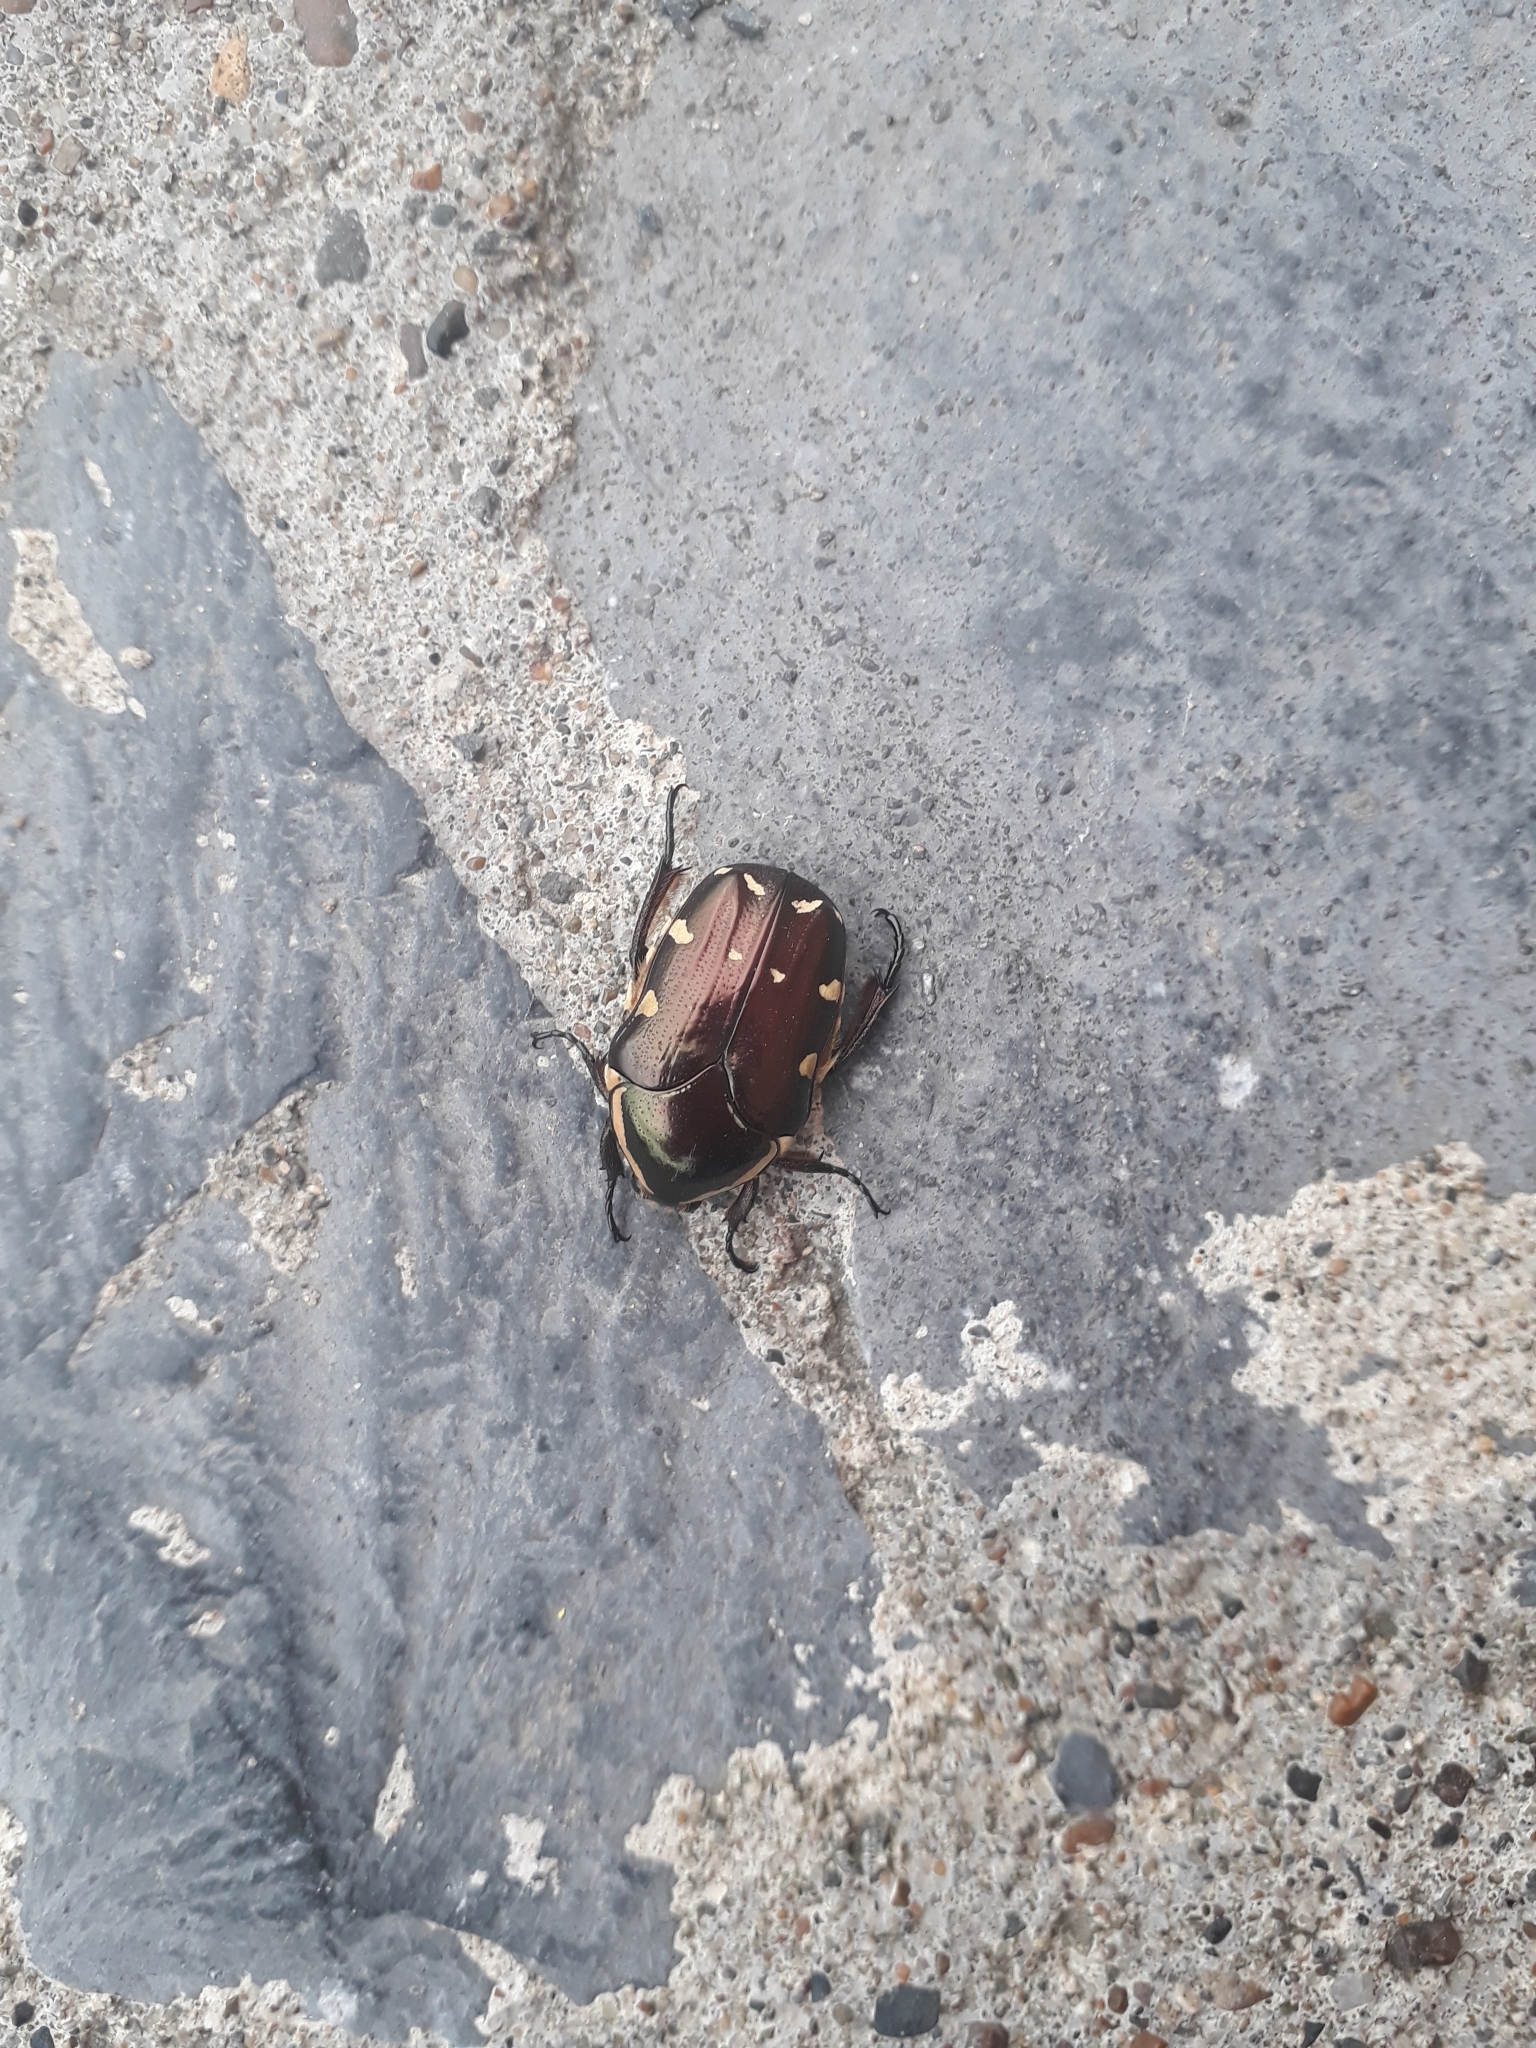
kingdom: Animalia
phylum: Arthropoda
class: Insecta
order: Coleoptera
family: Scarabaeidae
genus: Amithao
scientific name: Amithao decemguttatus
